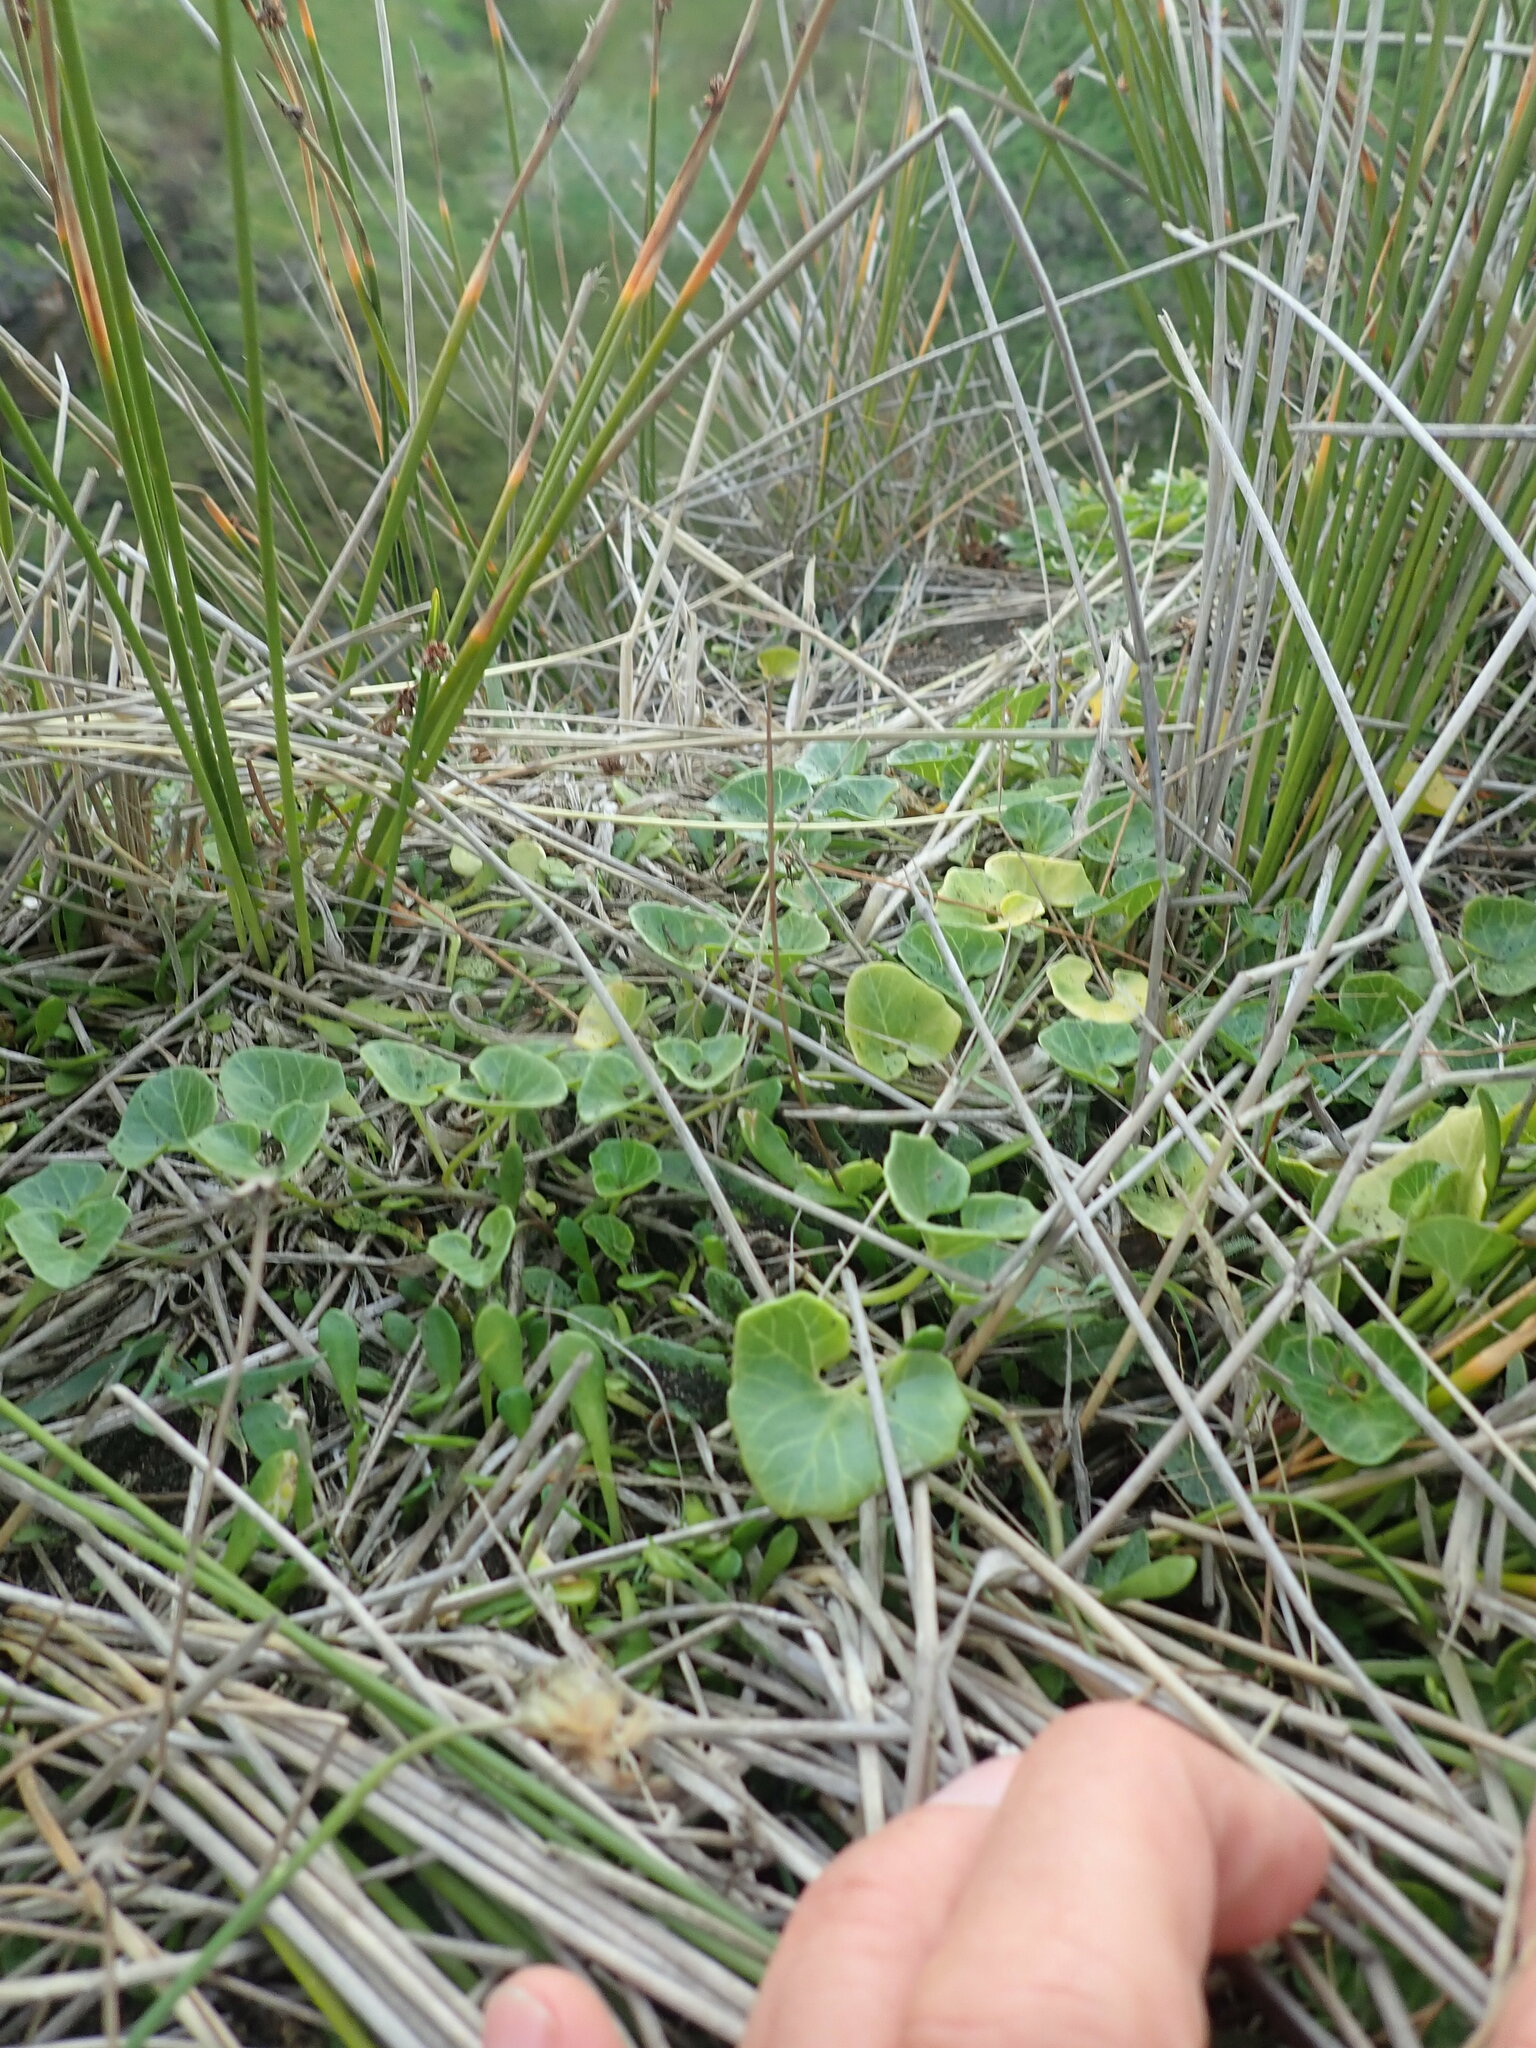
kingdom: Plantae
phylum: Tracheophyta
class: Magnoliopsida
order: Solanales
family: Convolvulaceae
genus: Calystegia
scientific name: Calystegia soldanella
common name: Sea bindweed
